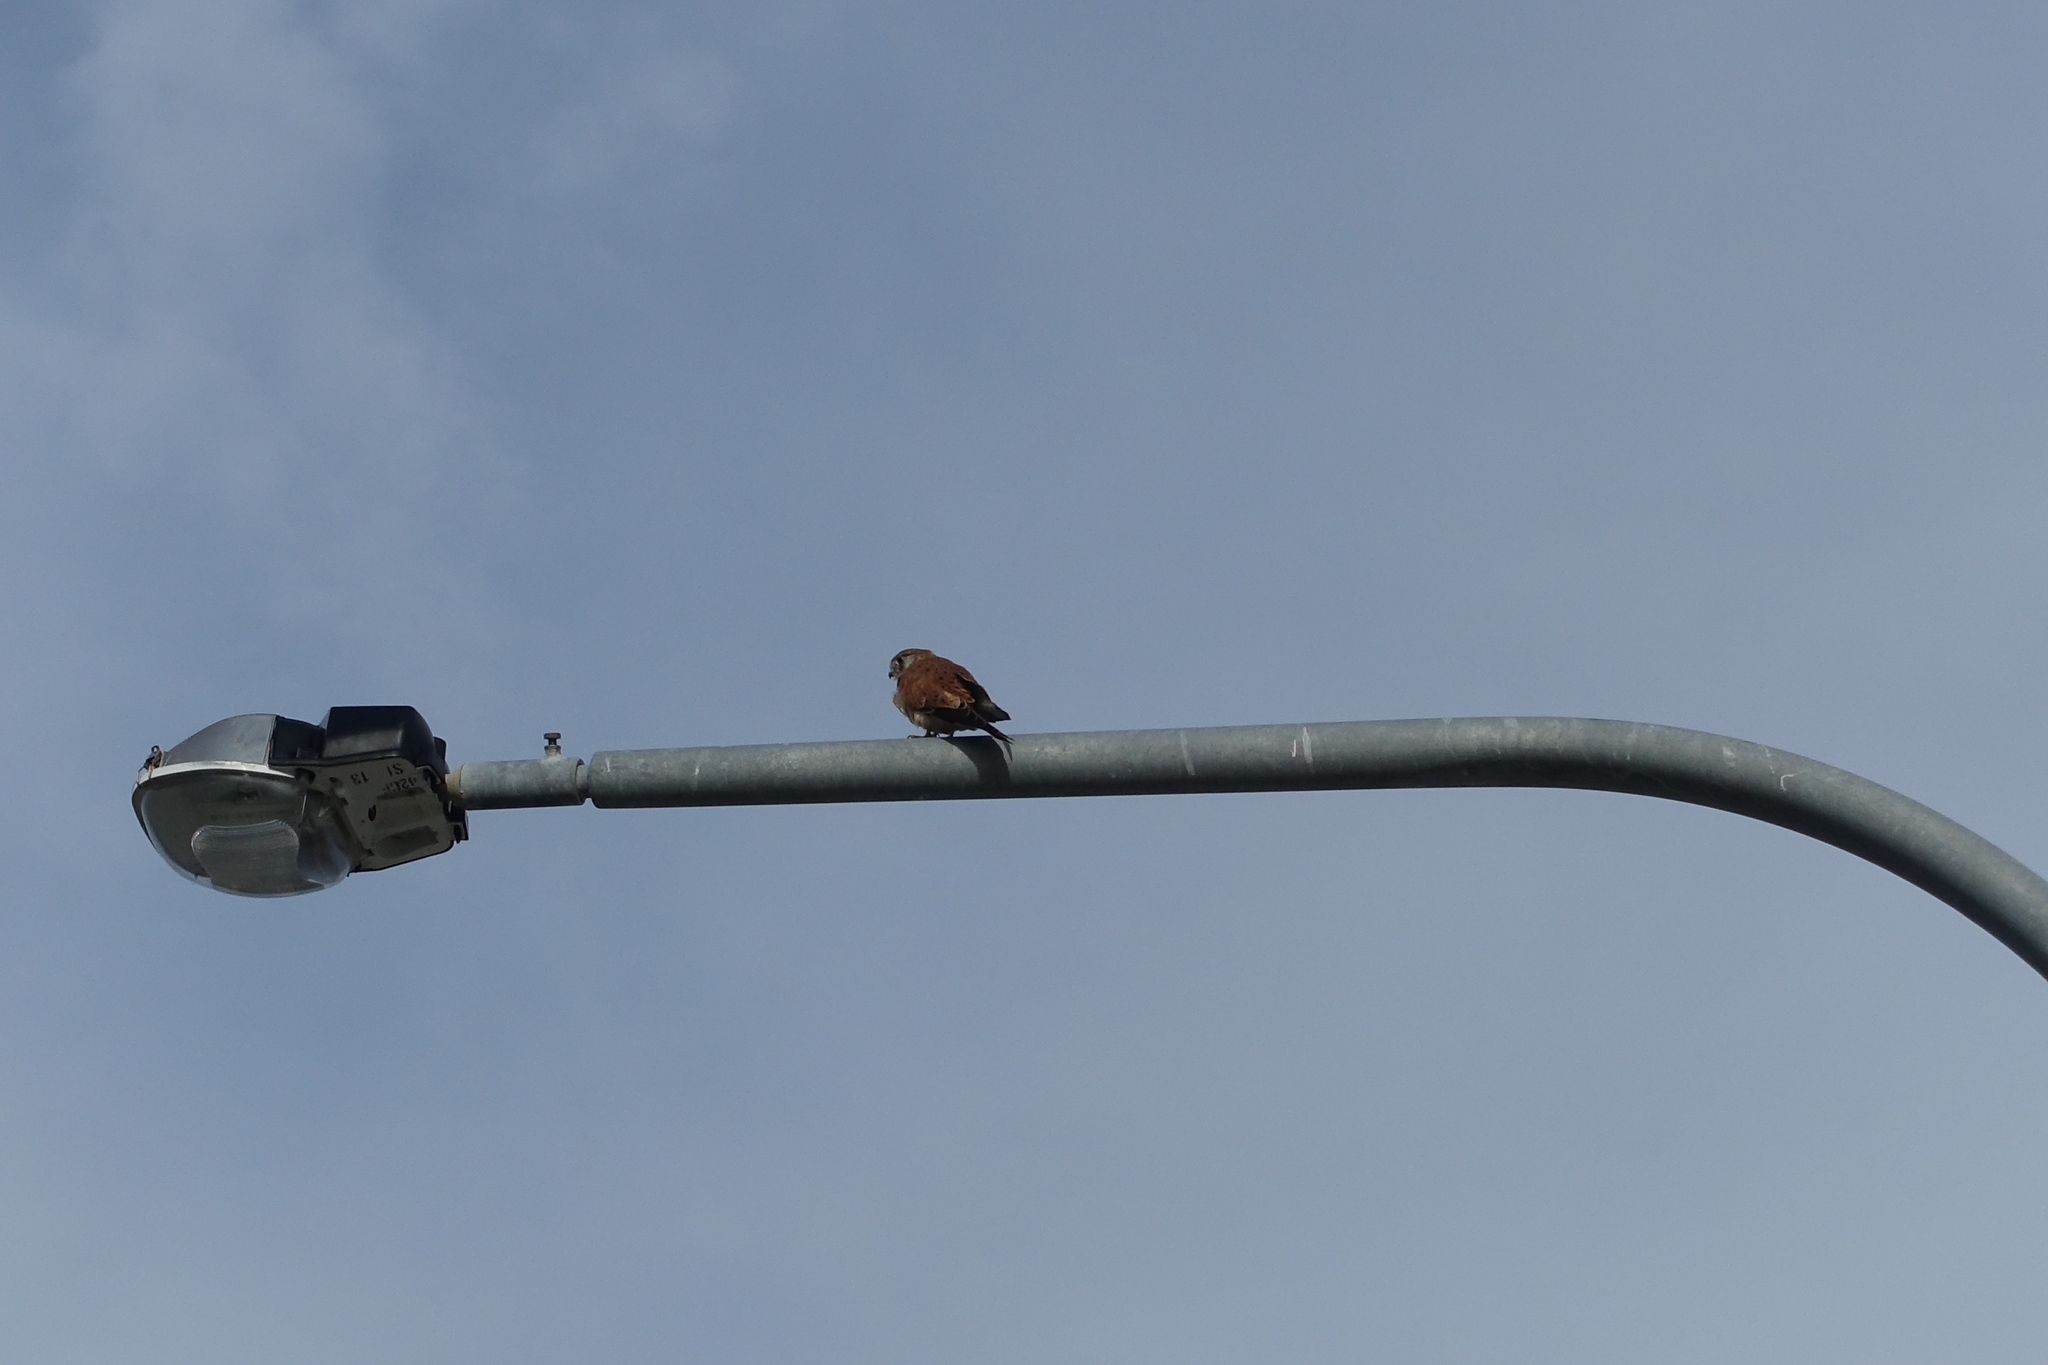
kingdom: Animalia
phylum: Chordata
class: Aves
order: Falconiformes
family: Falconidae
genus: Falco
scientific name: Falco cenchroides
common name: Nankeen kestrel
